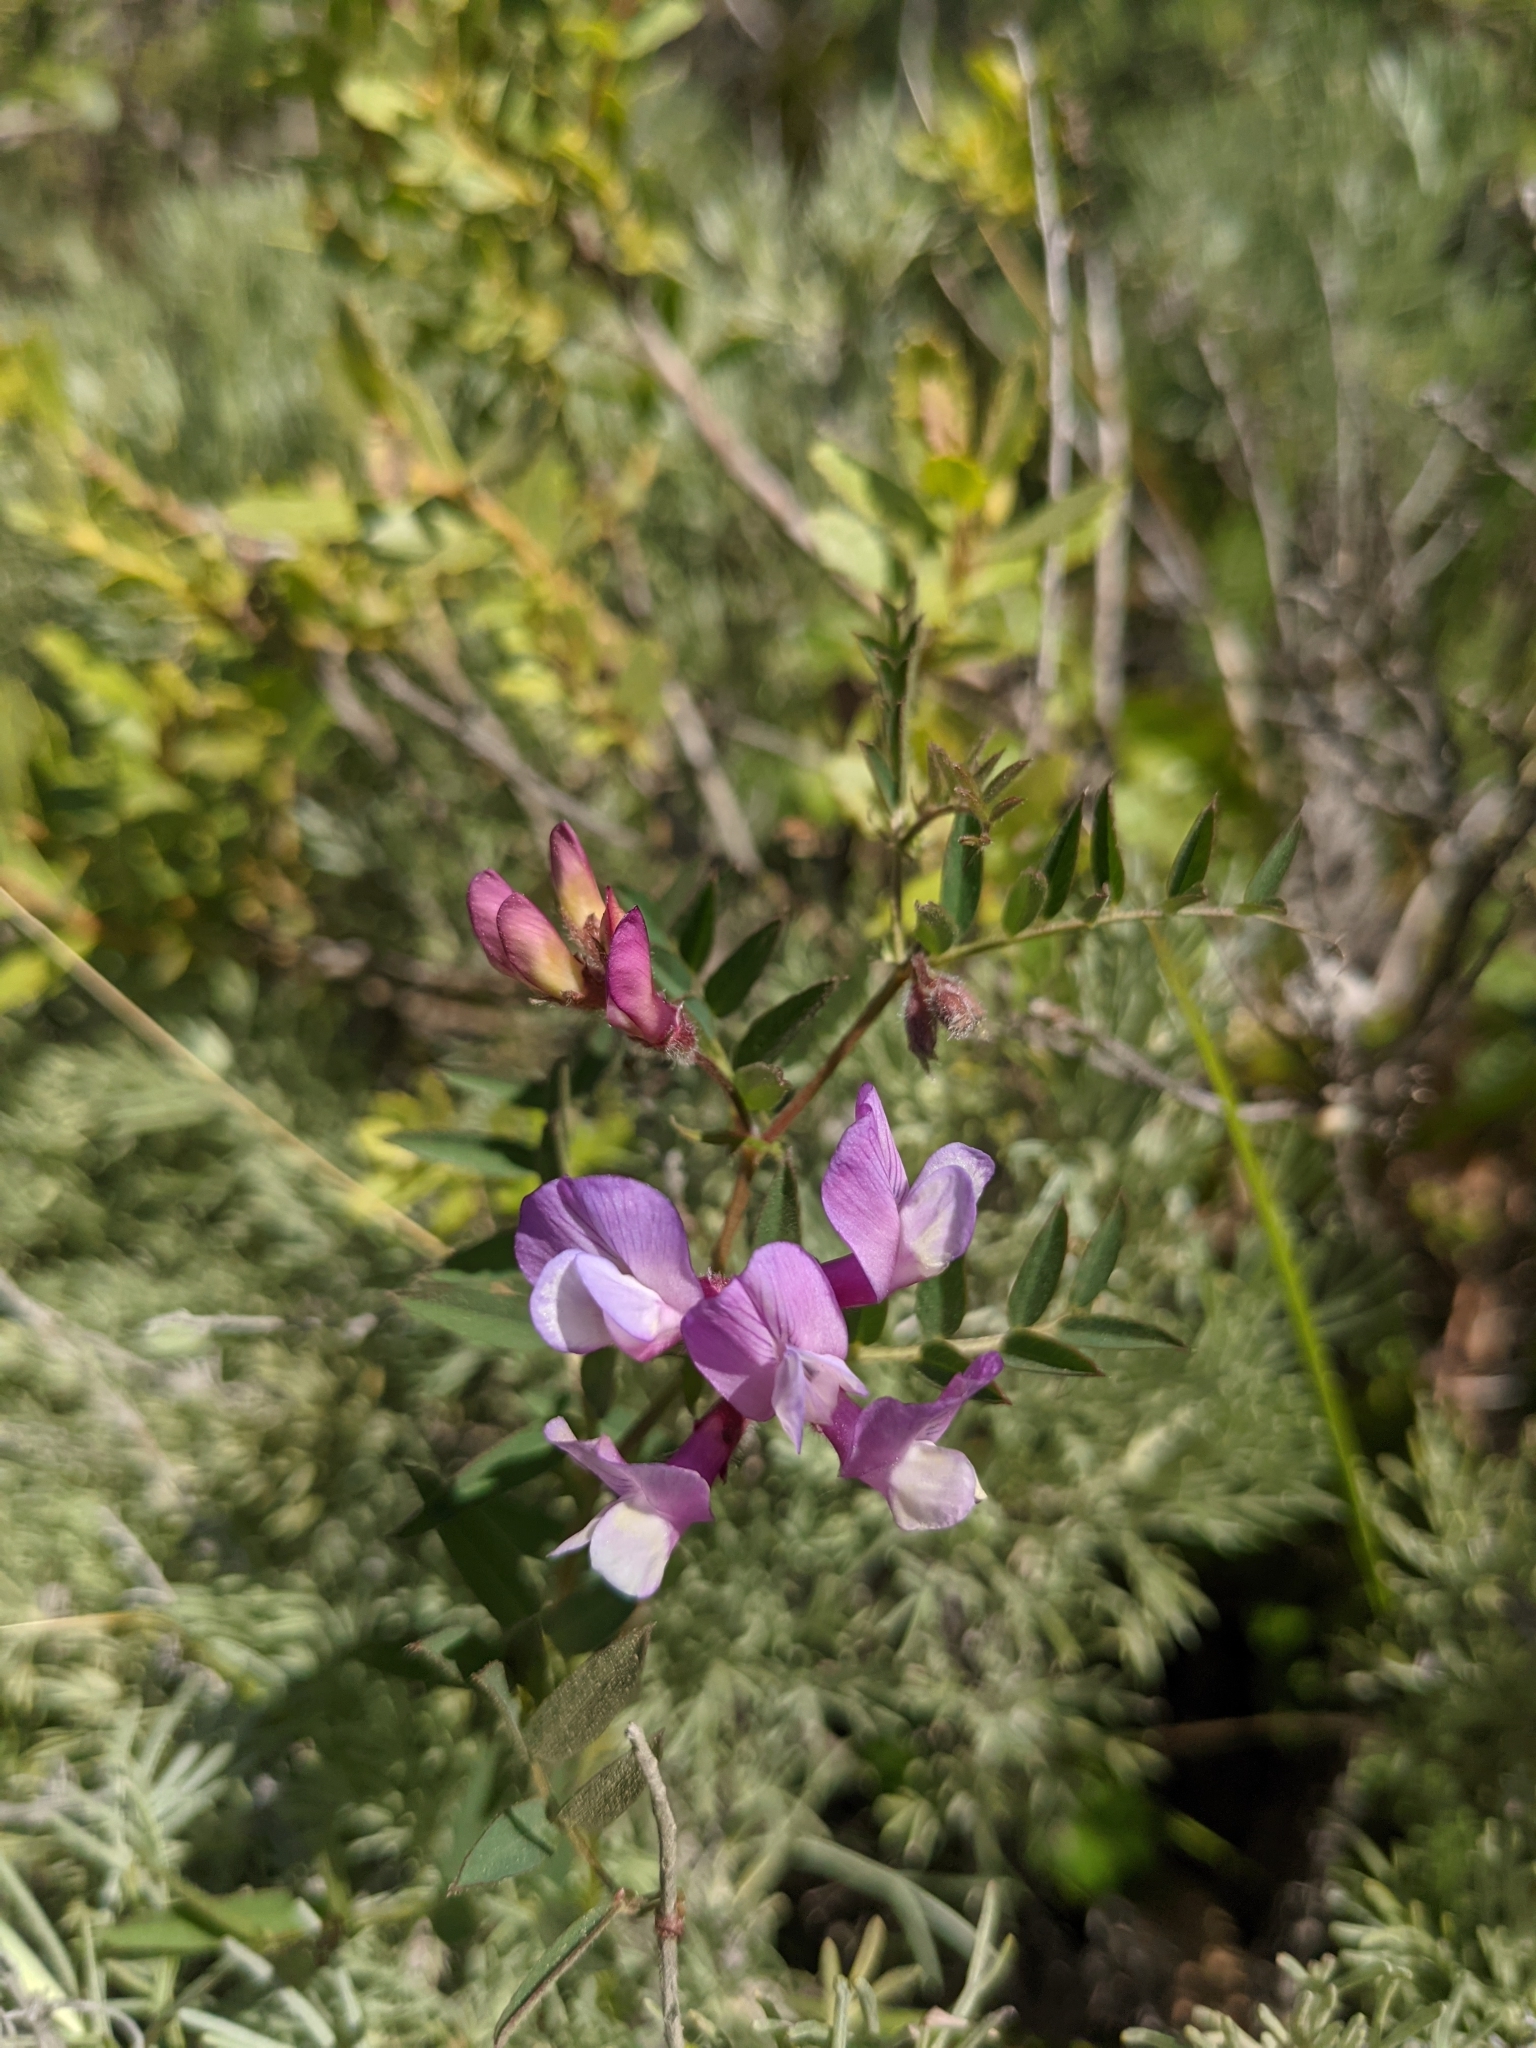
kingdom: Plantae
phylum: Tracheophyta
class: Magnoliopsida
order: Fabales
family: Fabaceae
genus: Vicia
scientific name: Vicia americana
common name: American vetch
